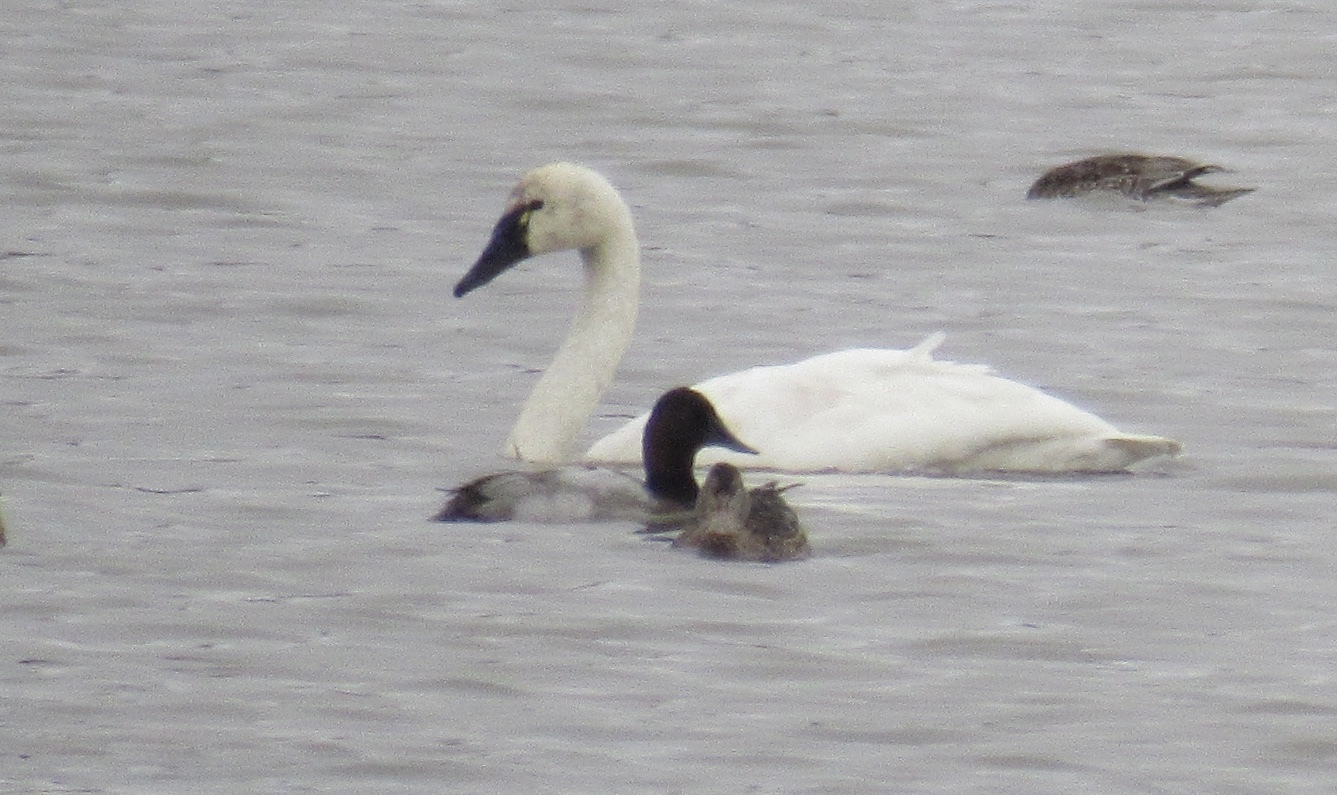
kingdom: Animalia
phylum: Chordata
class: Aves
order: Anseriformes
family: Anatidae
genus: Aythya
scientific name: Aythya valisineria
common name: Canvasback
